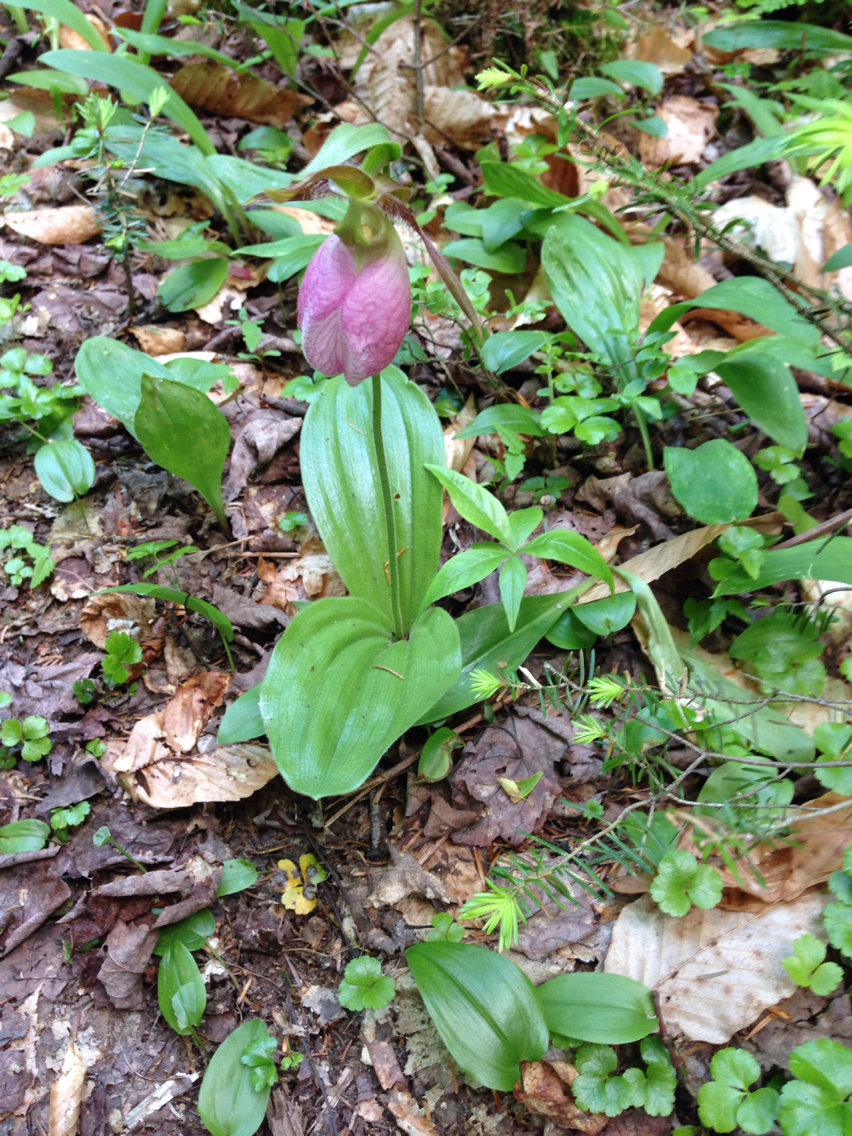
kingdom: Plantae
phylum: Tracheophyta
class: Liliopsida
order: Asparagales
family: Orchidaceae
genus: Cypripedium
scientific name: Cypripedium acaule
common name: Pink lady's-slipper
